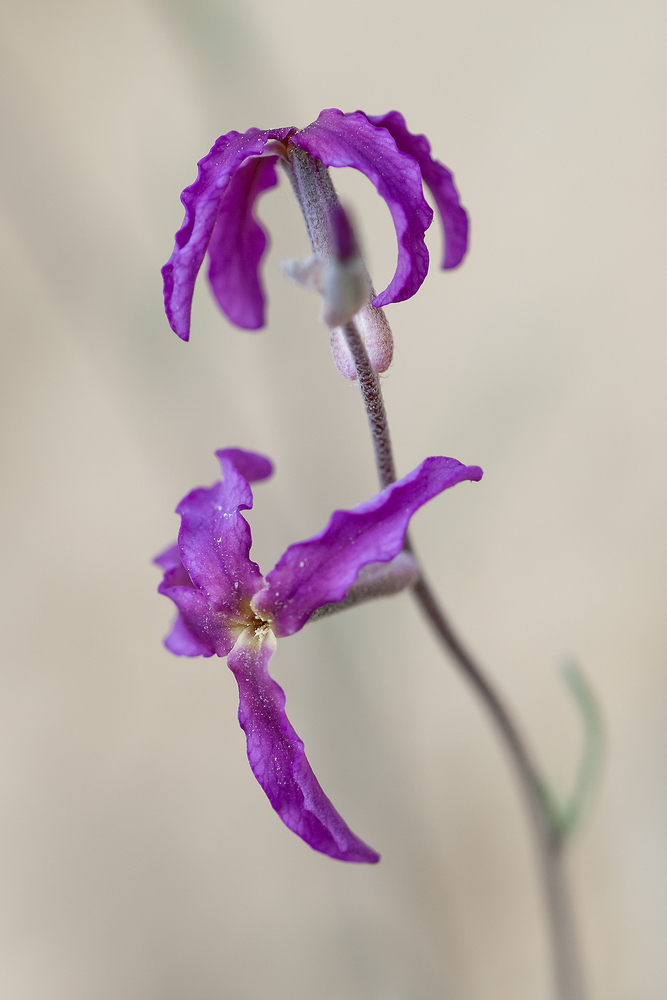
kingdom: Plantae
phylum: Tracheophyta
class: Magnoliopsida
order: Brassicales
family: Brassicaceae
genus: Matthiola
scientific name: Matthiola fruticulosa
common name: Sad stock
